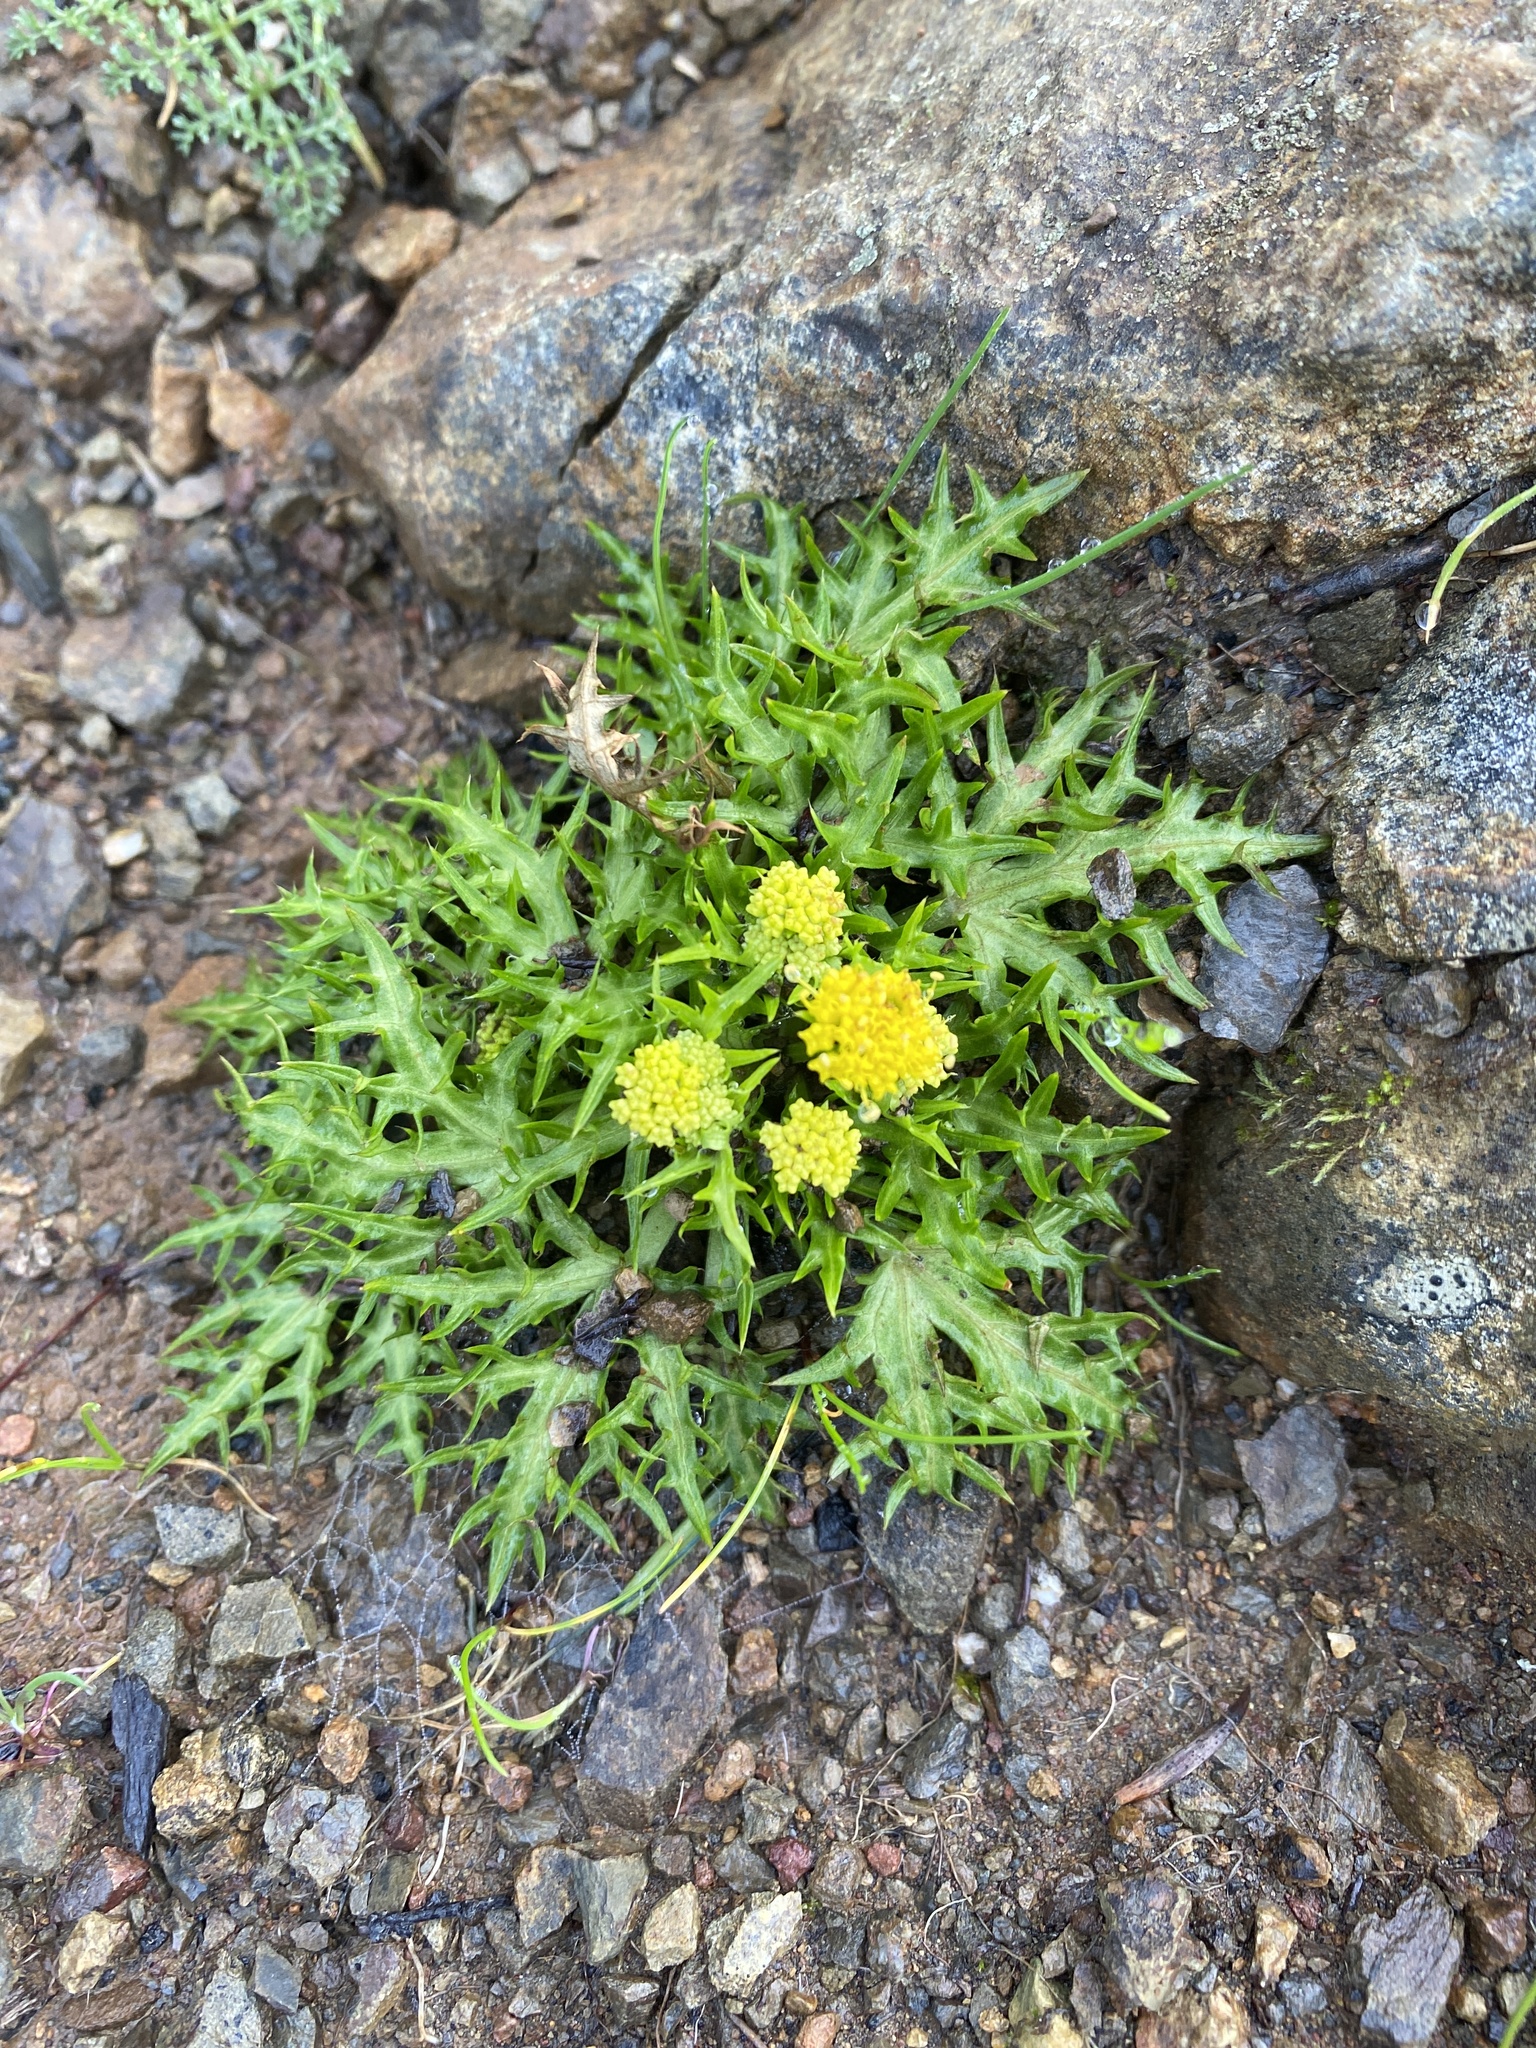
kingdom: Plantae
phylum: Tracheophyta
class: Magnoliopsida
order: Apiales
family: Apiaceae
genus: Sanicula
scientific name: Sanicula laciniata
